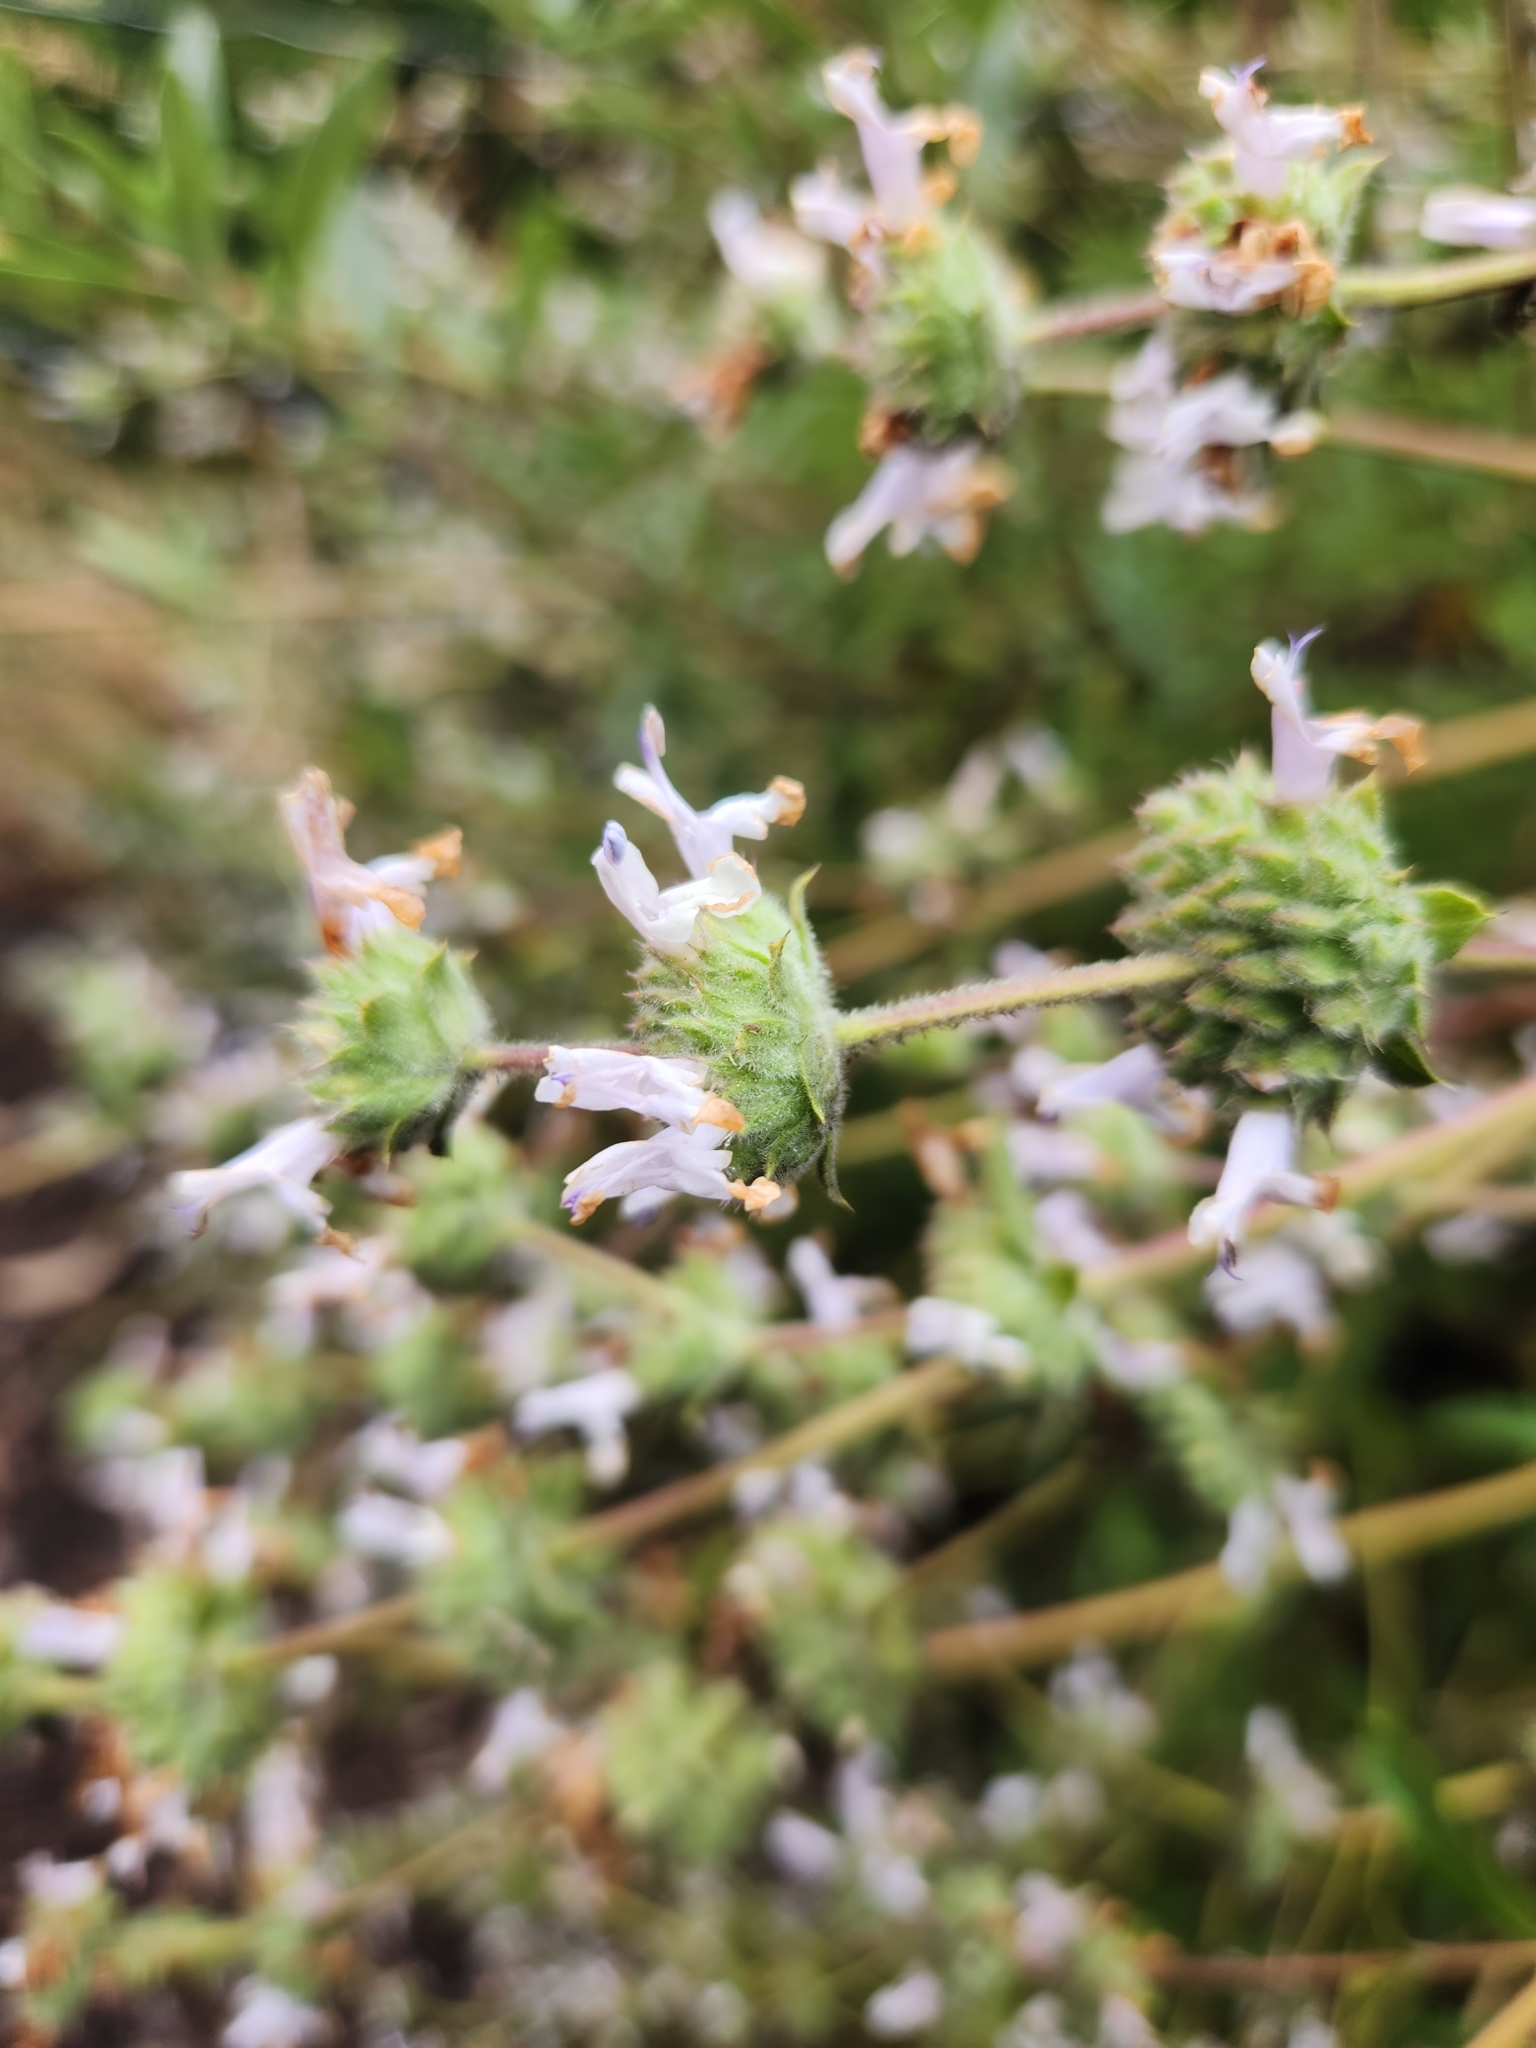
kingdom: Plantae
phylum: Tracheophyta
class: Magnoliopsida
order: Lamiales
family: Lamiaceae
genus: Salvia
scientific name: Salvia mellifera
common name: Black sage
